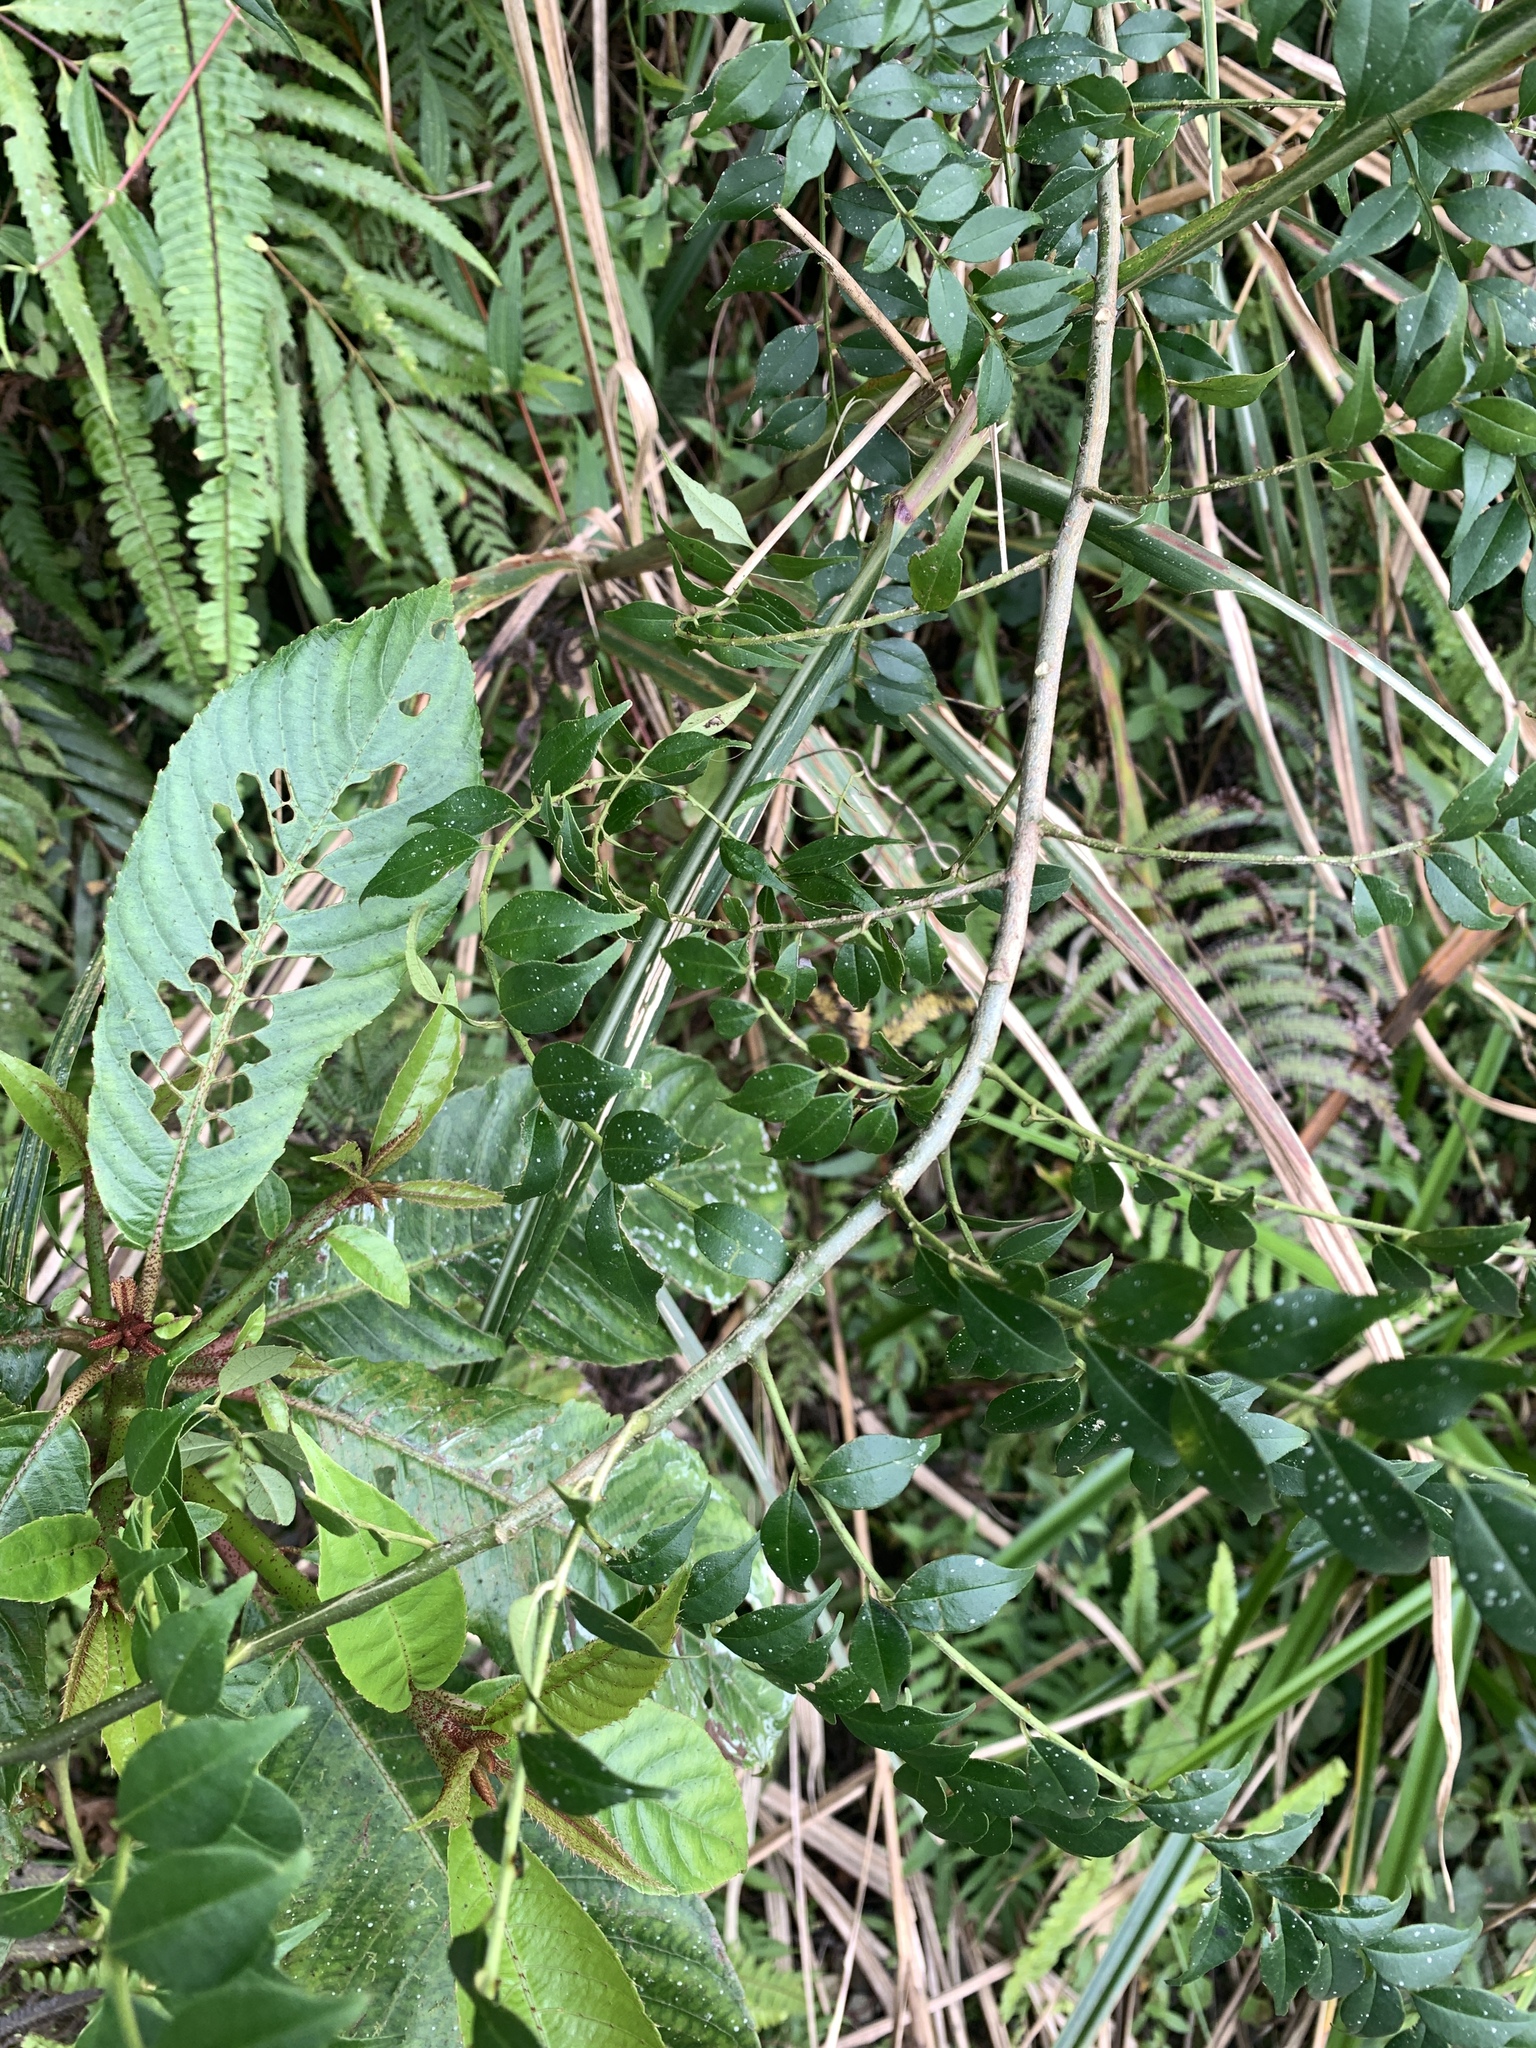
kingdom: Plantae
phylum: Tracheophyta
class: Magnoliopsida
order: Sapindales
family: Rutaceae
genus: Zanthoxylum
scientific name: Zanthoxylum scandens
